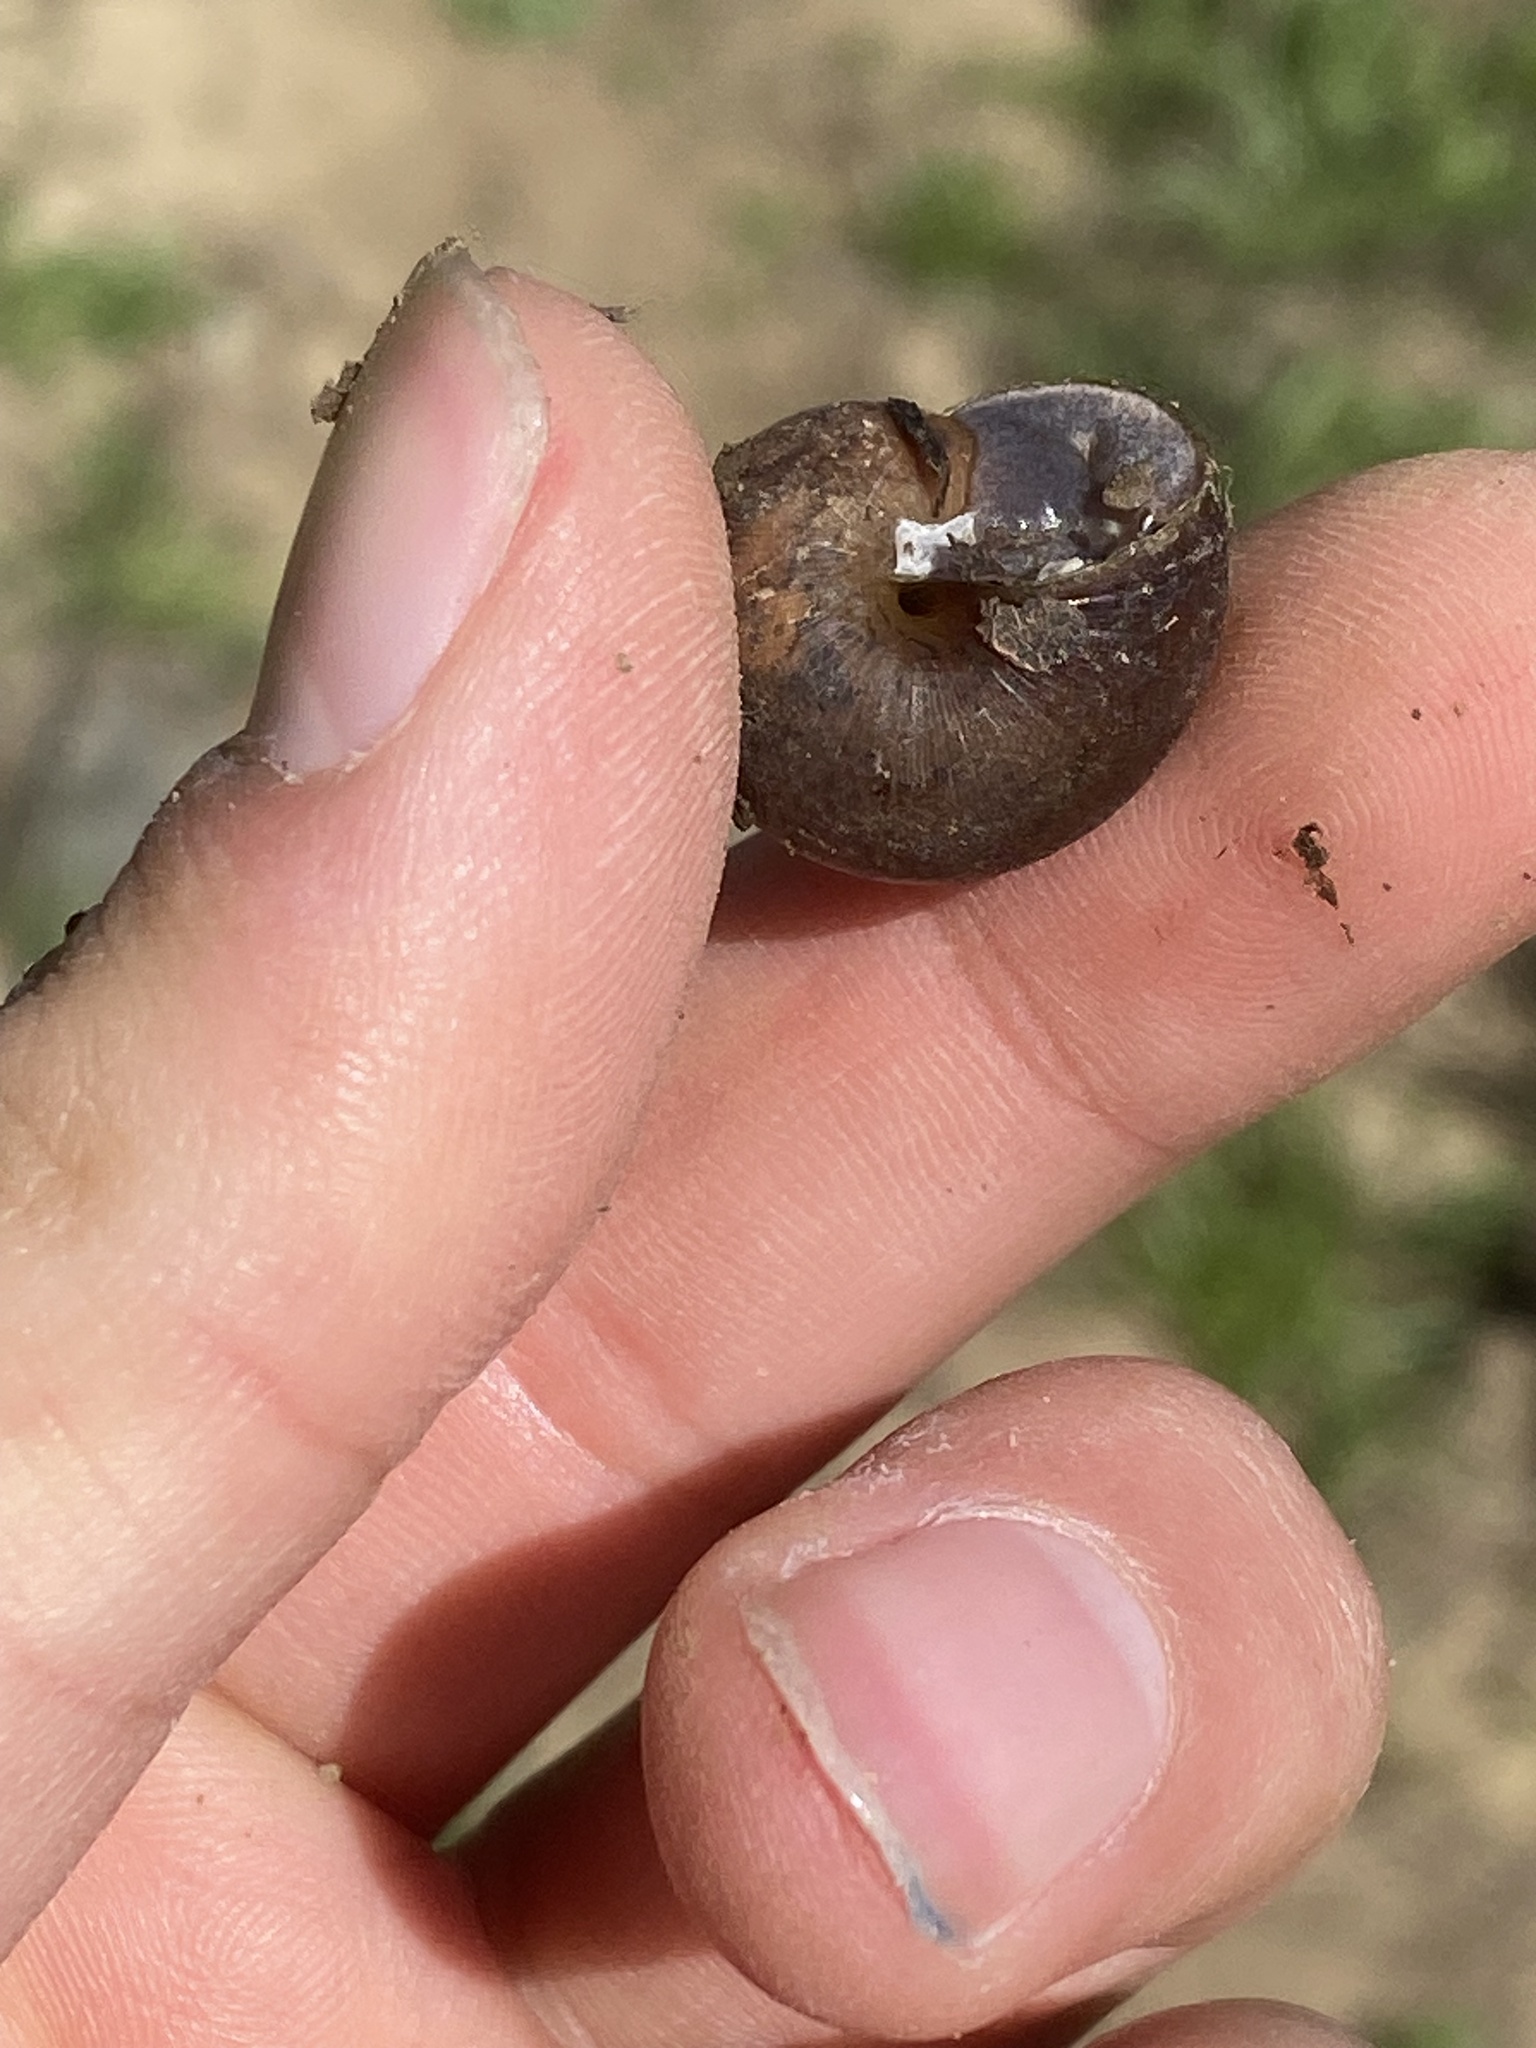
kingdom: Animalia
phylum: Mollusca
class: Gastropoda
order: Stylommatophora
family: Xanthonychidae
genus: Helminthoglypta
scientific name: Helminthoglypta nickliniana
